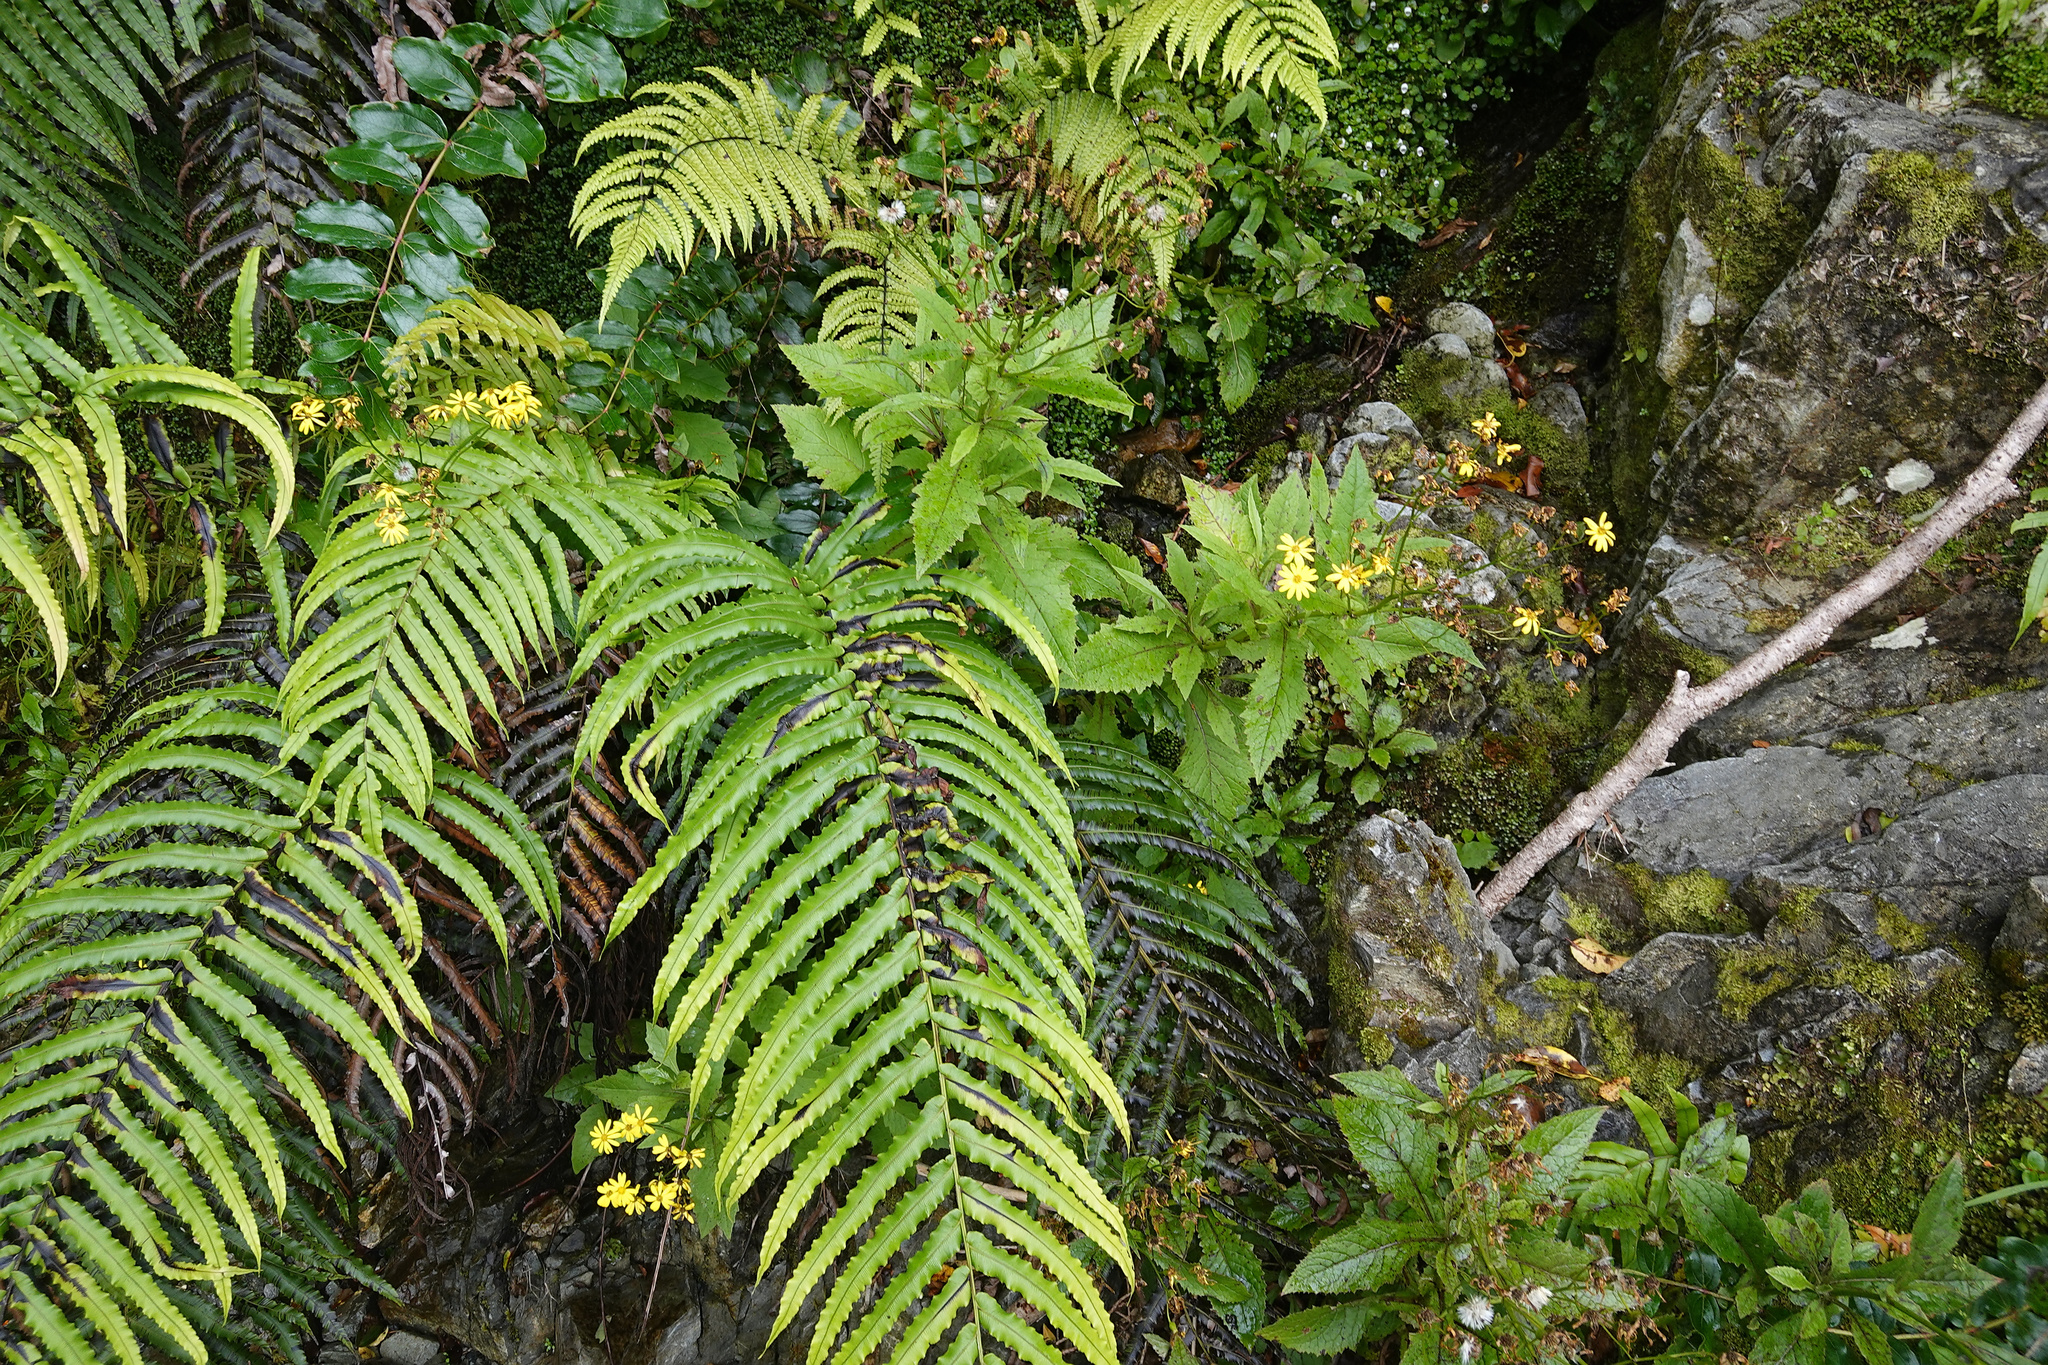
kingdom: Plantae
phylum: Tracheophyta
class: Magnoliopsida
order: Asterales
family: Asteraceae
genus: Senecio
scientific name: Senecio rufiglandulosus
